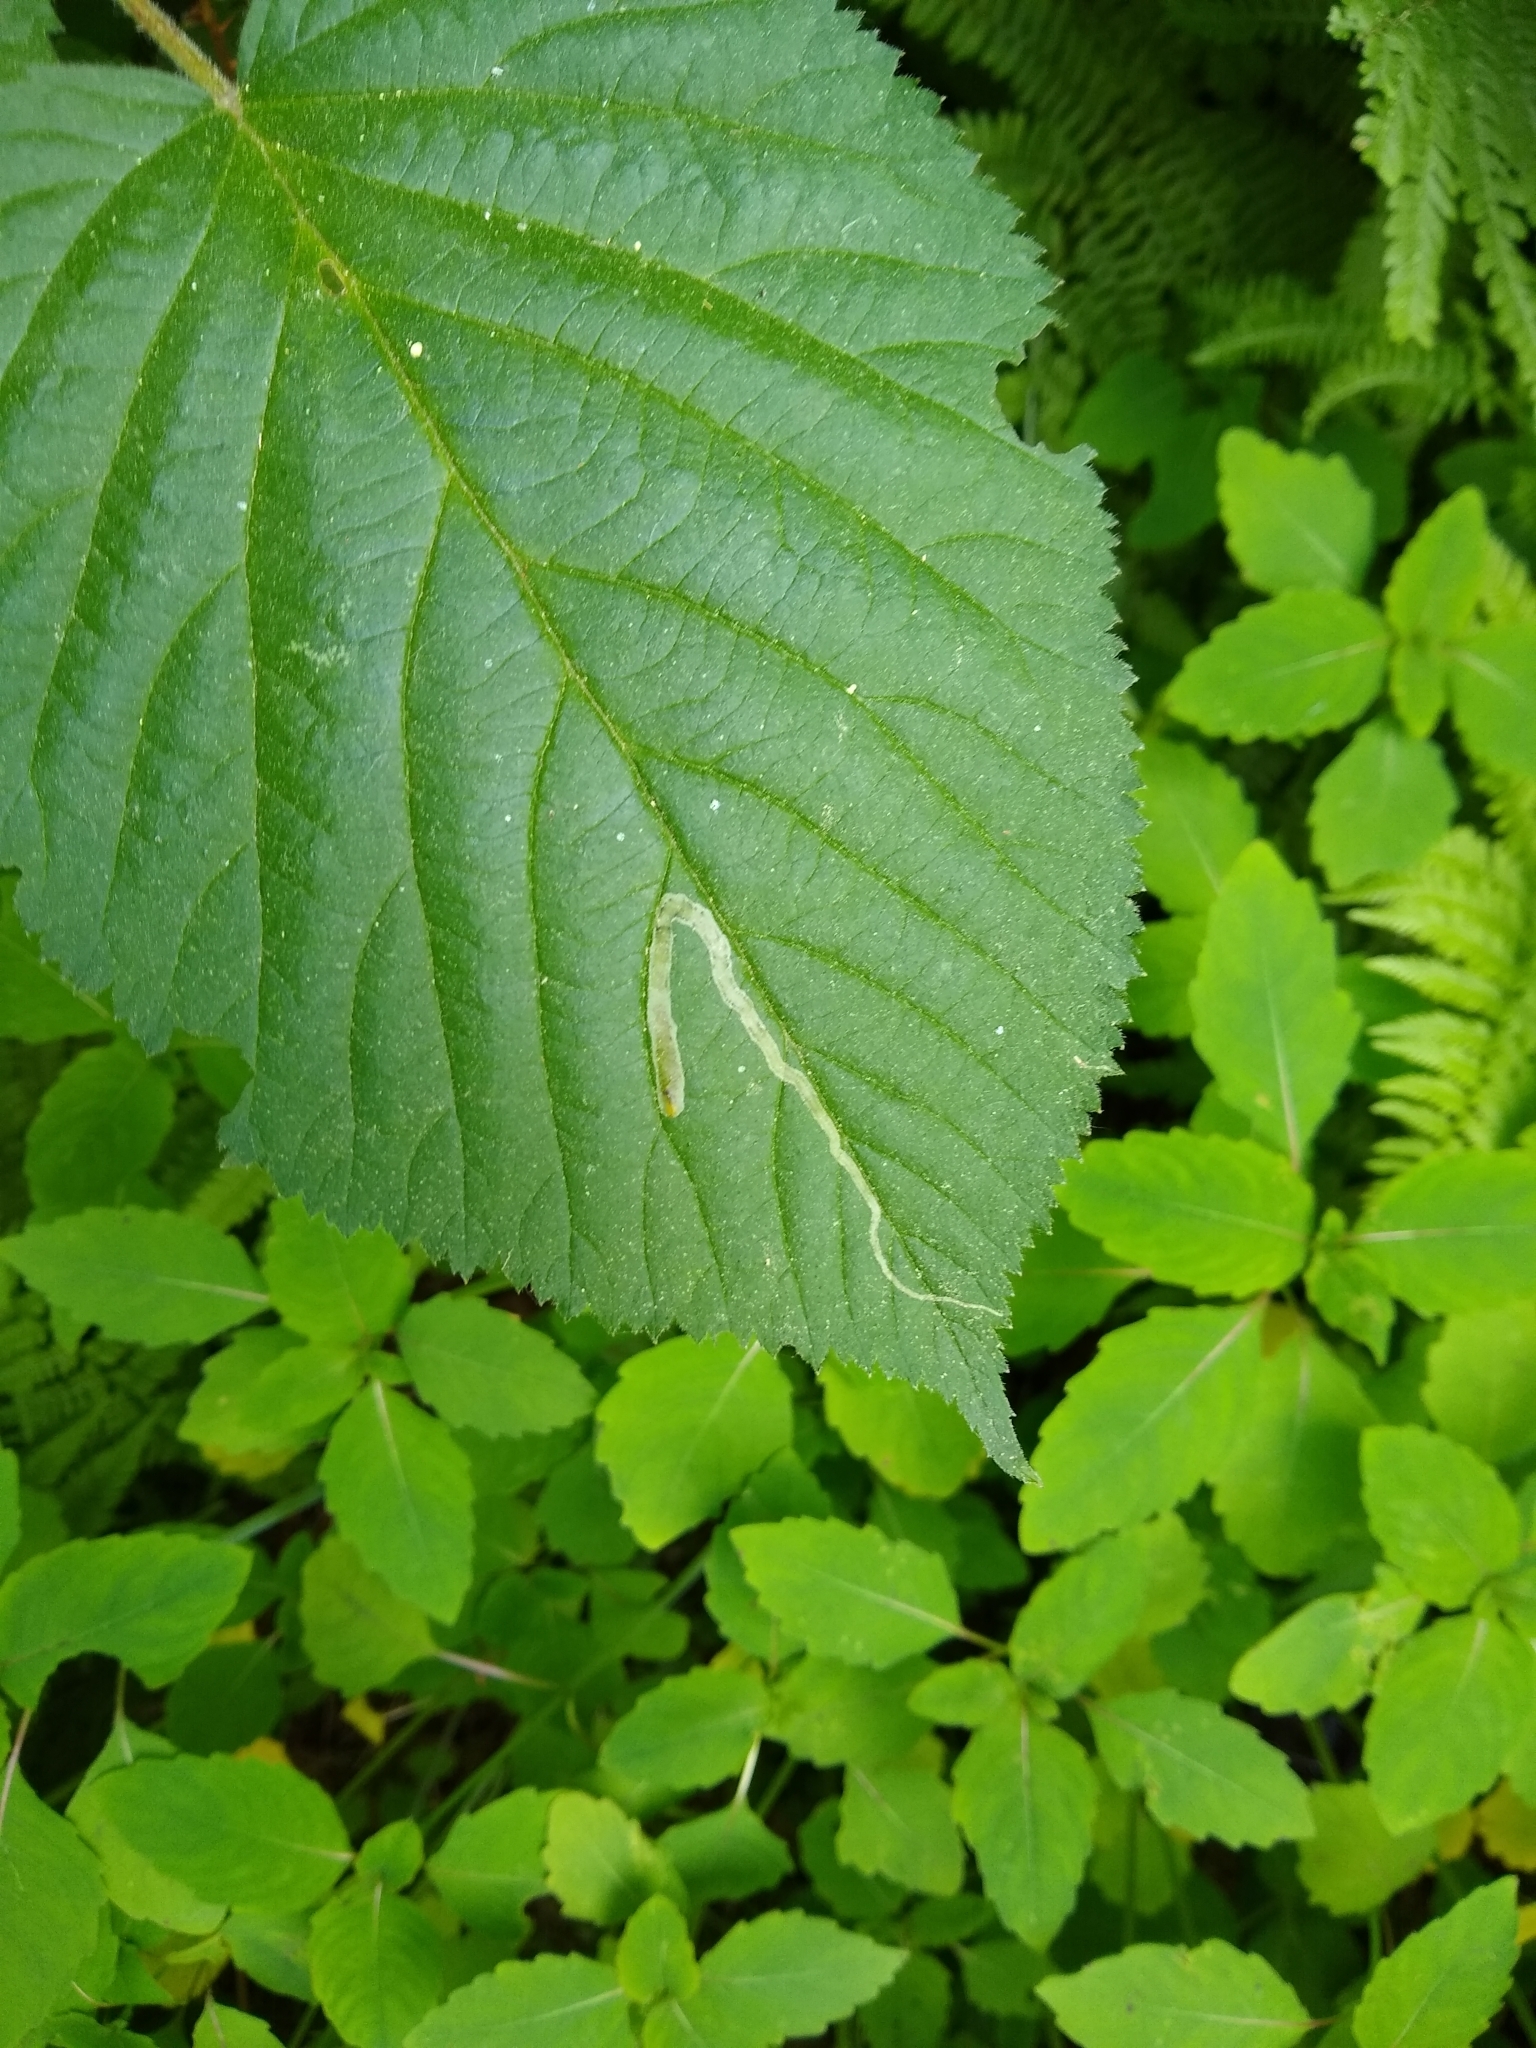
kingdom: Animalia
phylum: Arthropoda
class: Insecta
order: Diptera
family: Agromyzidae
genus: Agromyza
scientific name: Agromyza vockerothi
